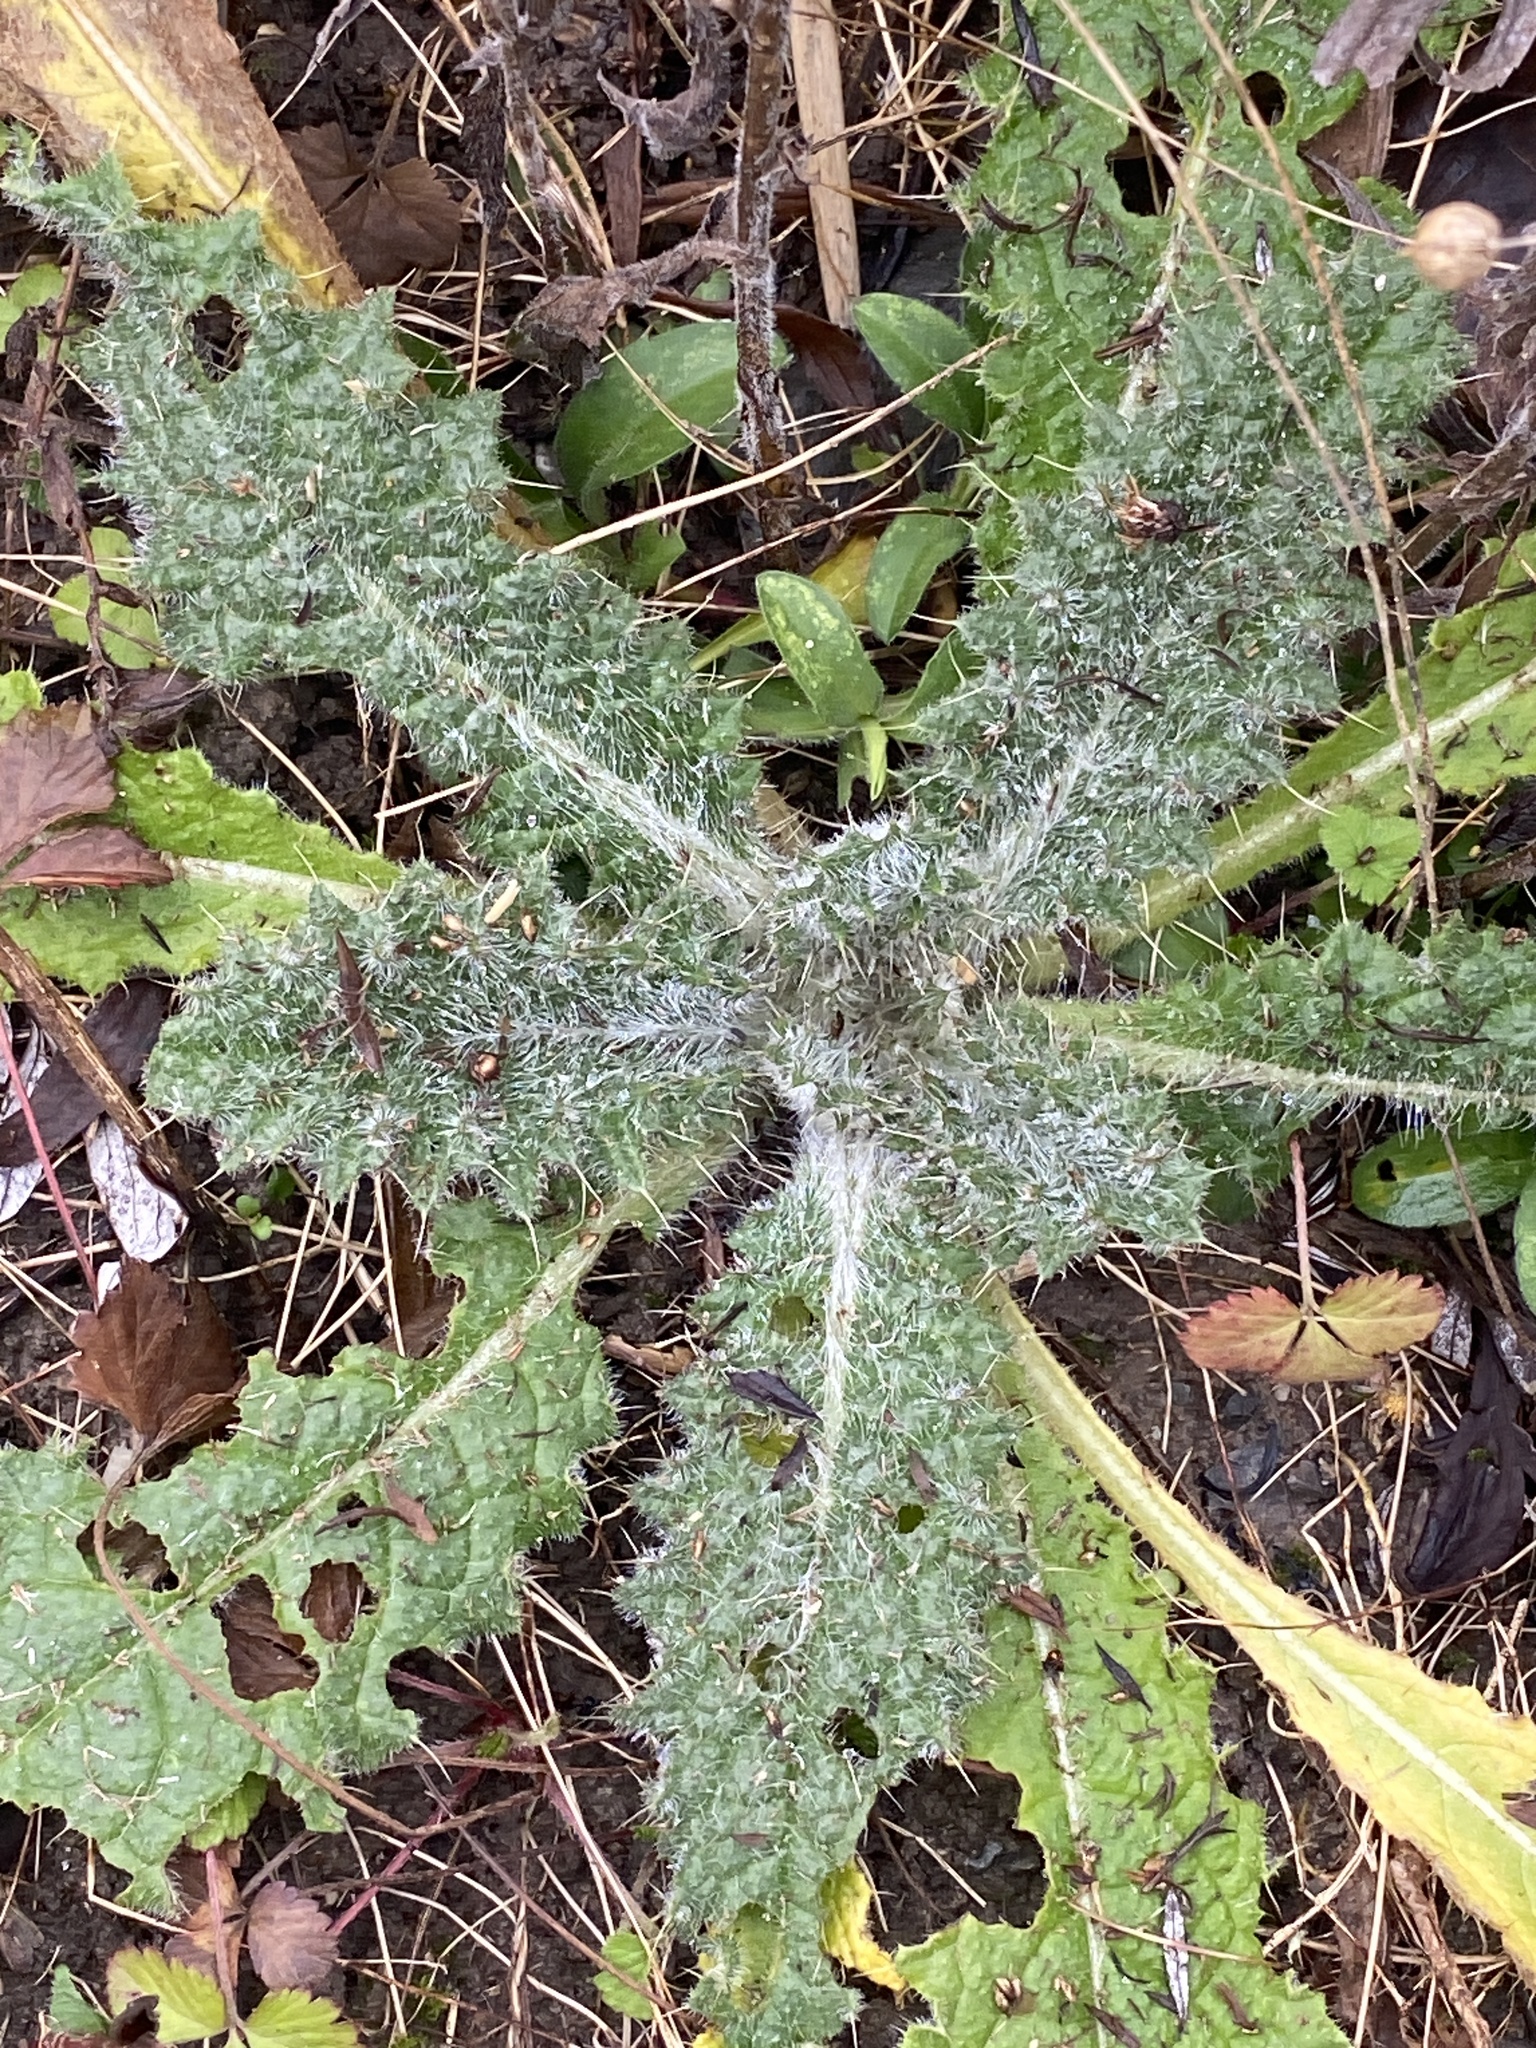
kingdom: Plantae
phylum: Tracheophyta
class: Magnoliopsida
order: Asterales
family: Asteraceae
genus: Cirsium
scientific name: Cirsium vulgare
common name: Bull thistle
